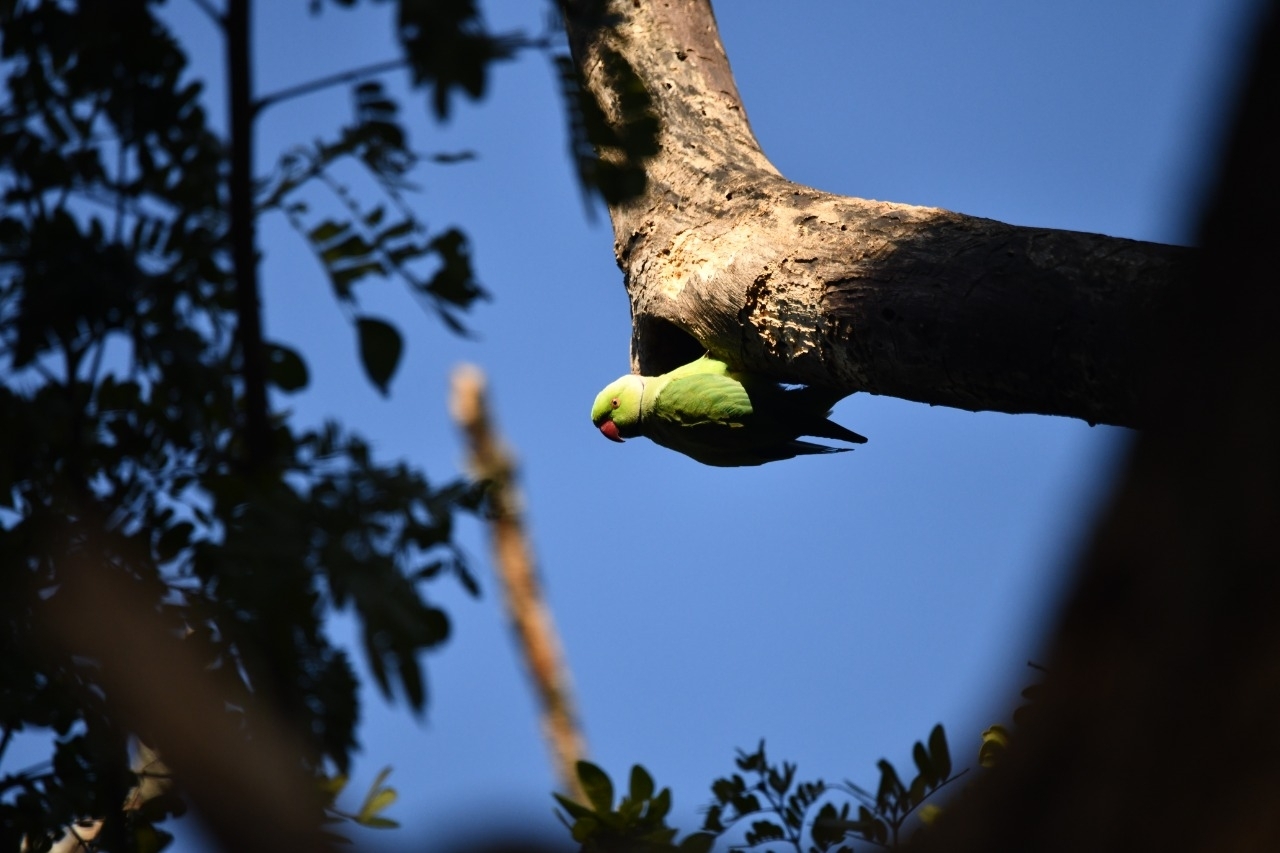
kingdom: Animalia
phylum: Chordata
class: Aves
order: Psittaciformes
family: Psittacidae
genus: Psittacula
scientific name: Psittacula krameri
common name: Rose-ringed parakeet
